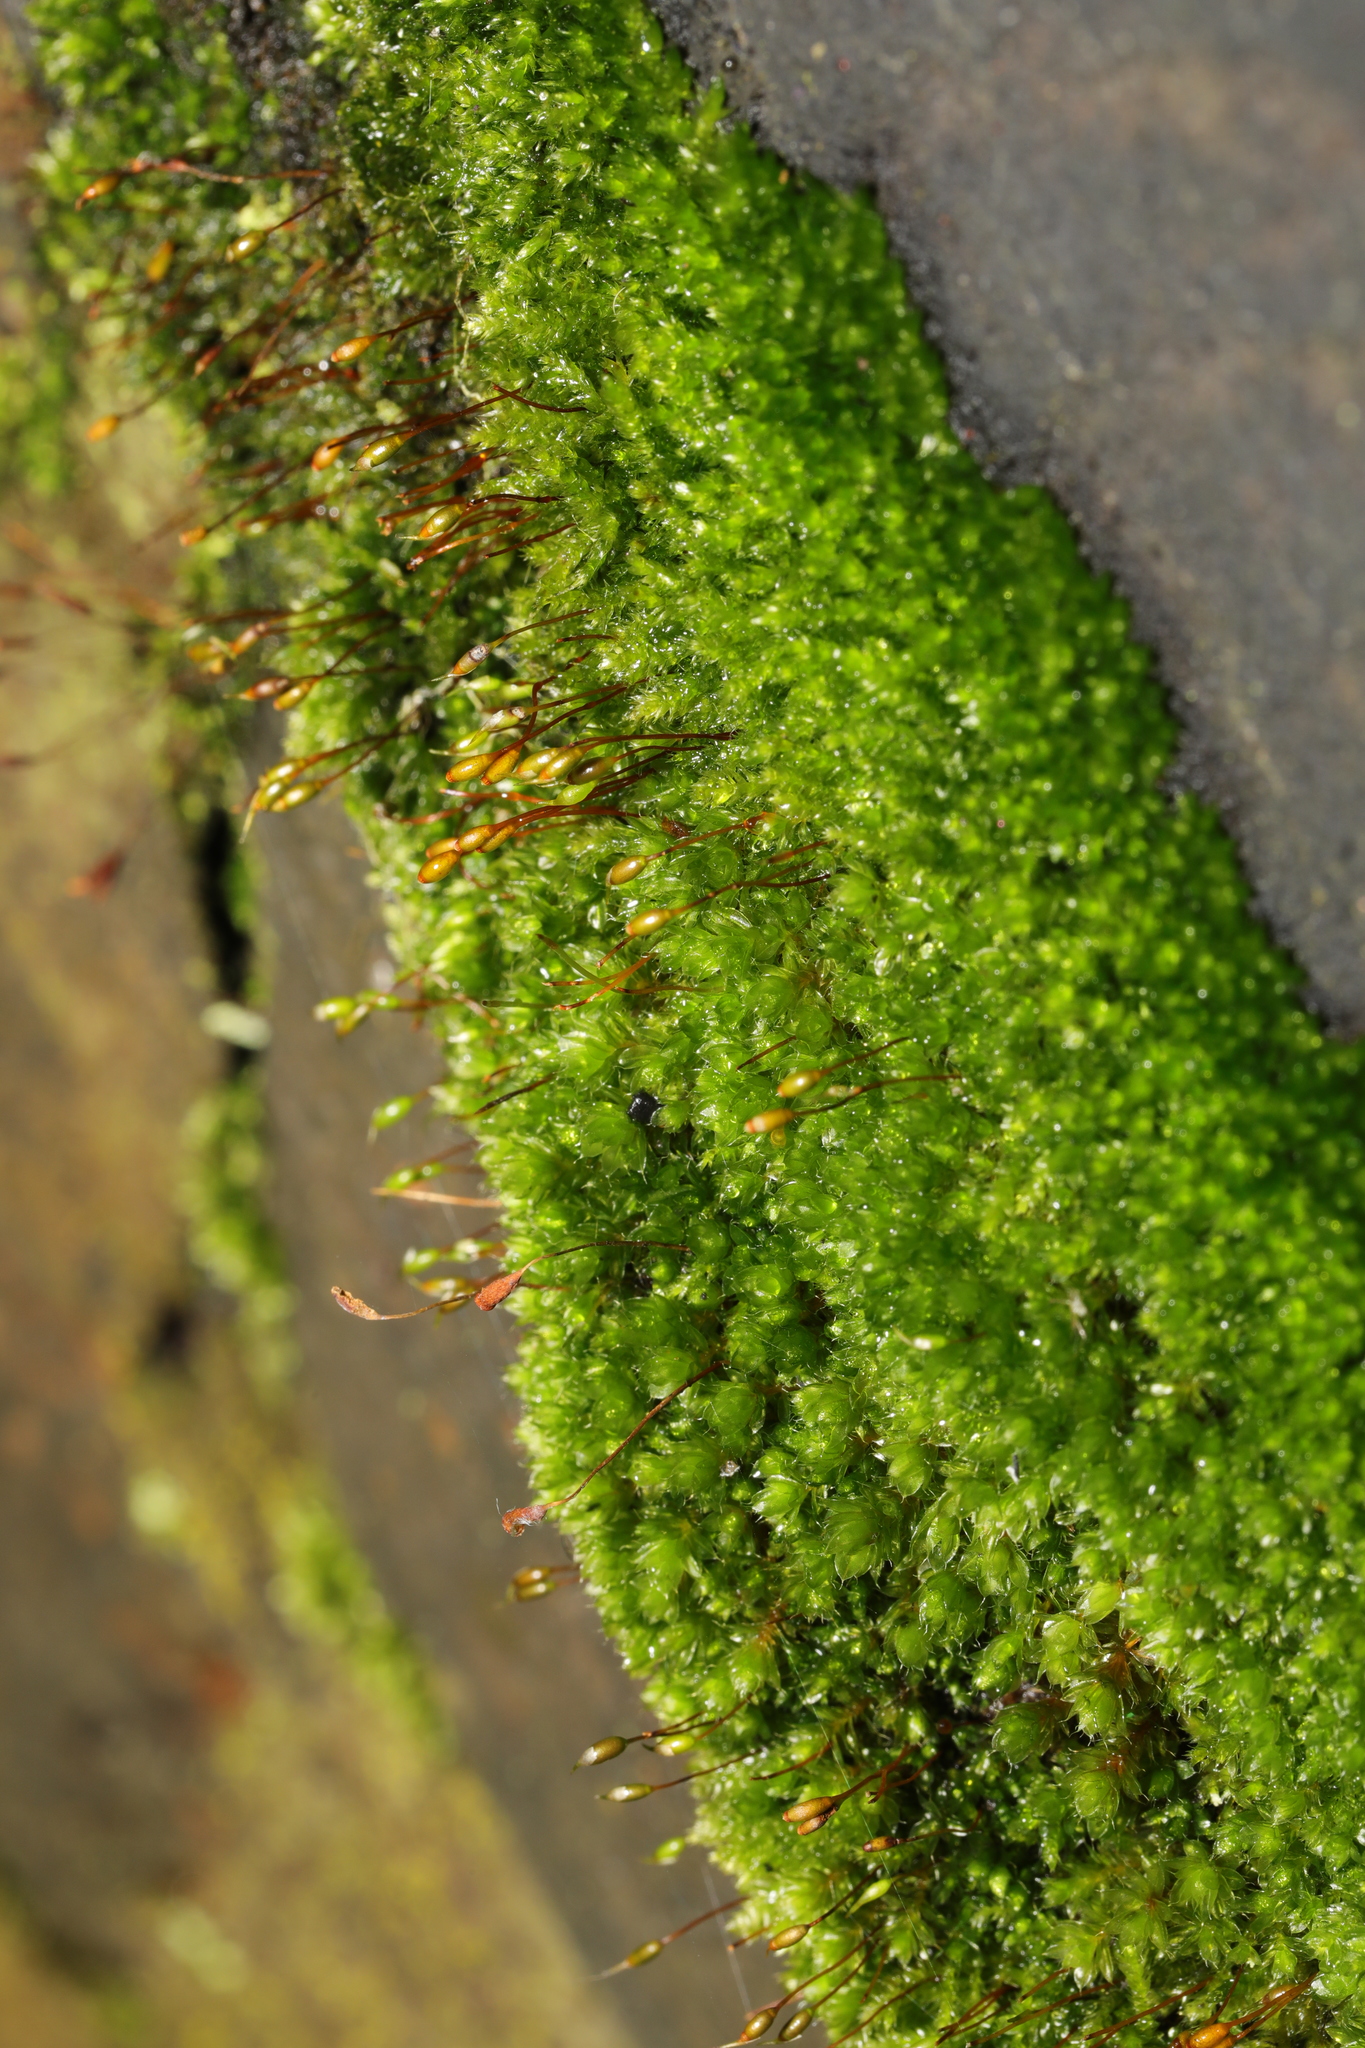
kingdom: Plantae
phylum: Bryophyta
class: Bryopsida
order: Bryales
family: Bryaceae
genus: Rosulabryum
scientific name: Rosulabryum capillare
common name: Capillary thread-moss
